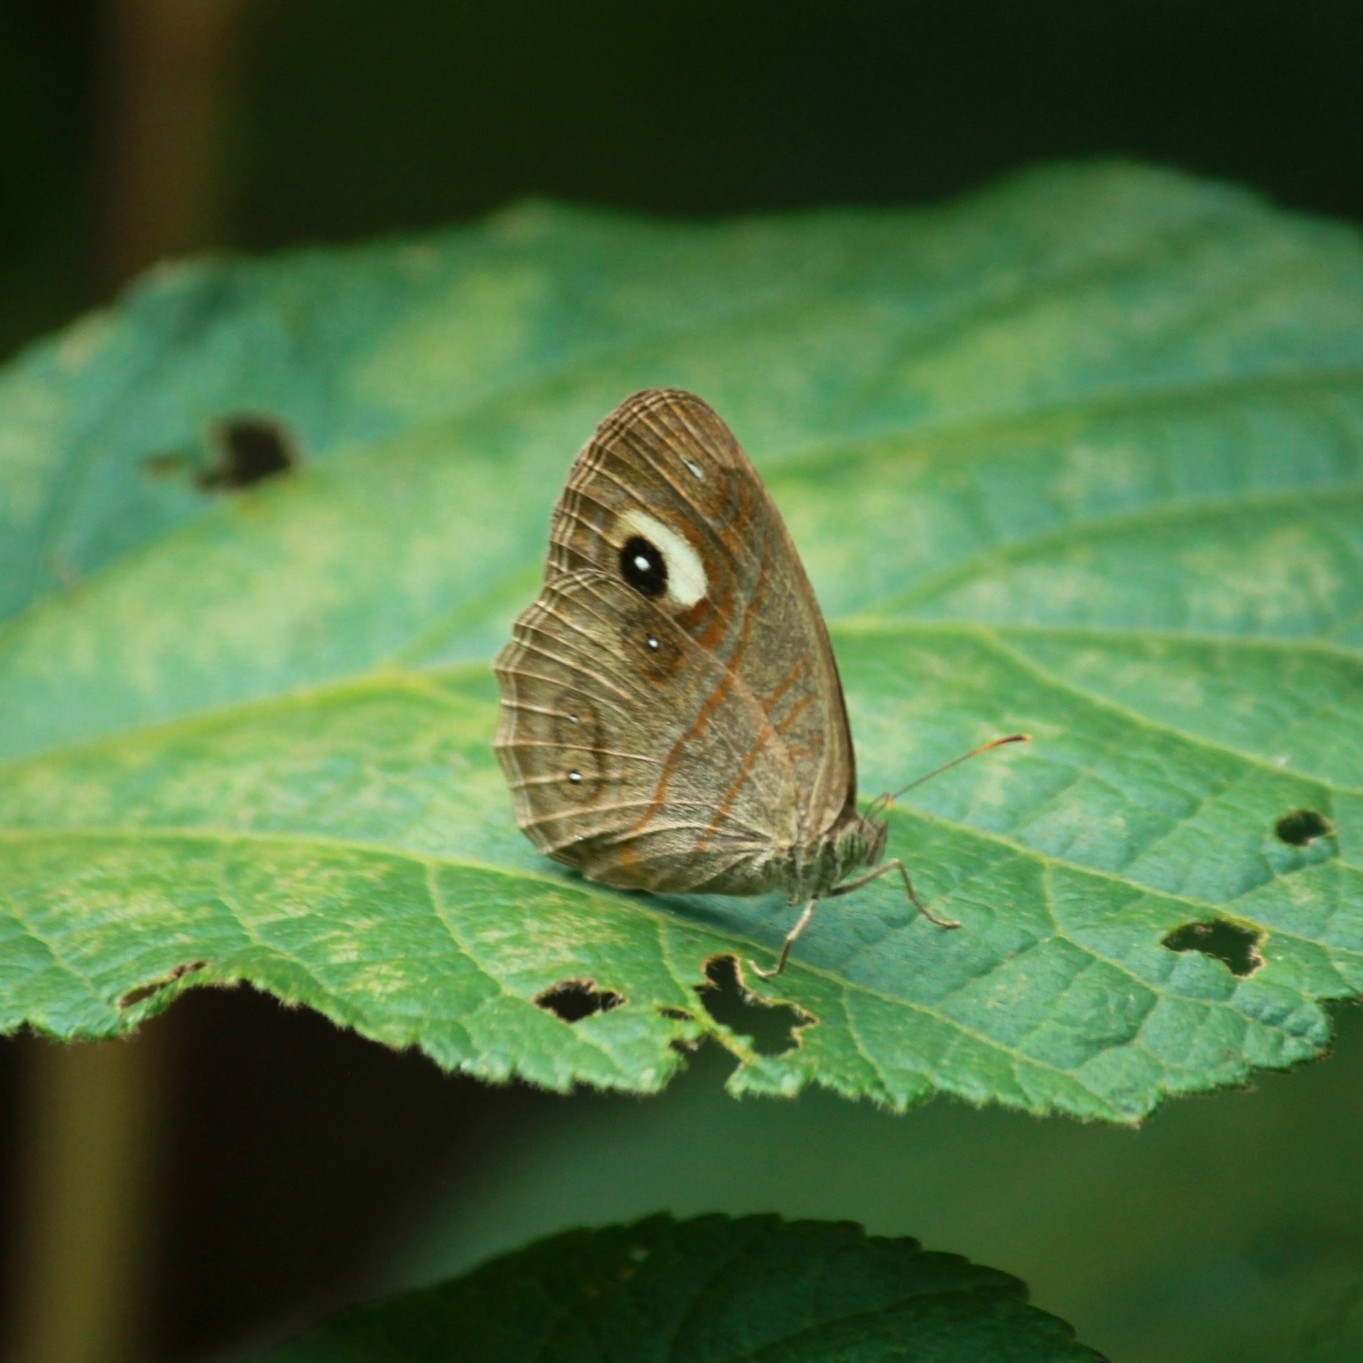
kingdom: Animalia
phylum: Arthropoda
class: Insecta
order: Lepidoptera
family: Nymphalidae
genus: Mycalesis
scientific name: Mycalesis patnia
